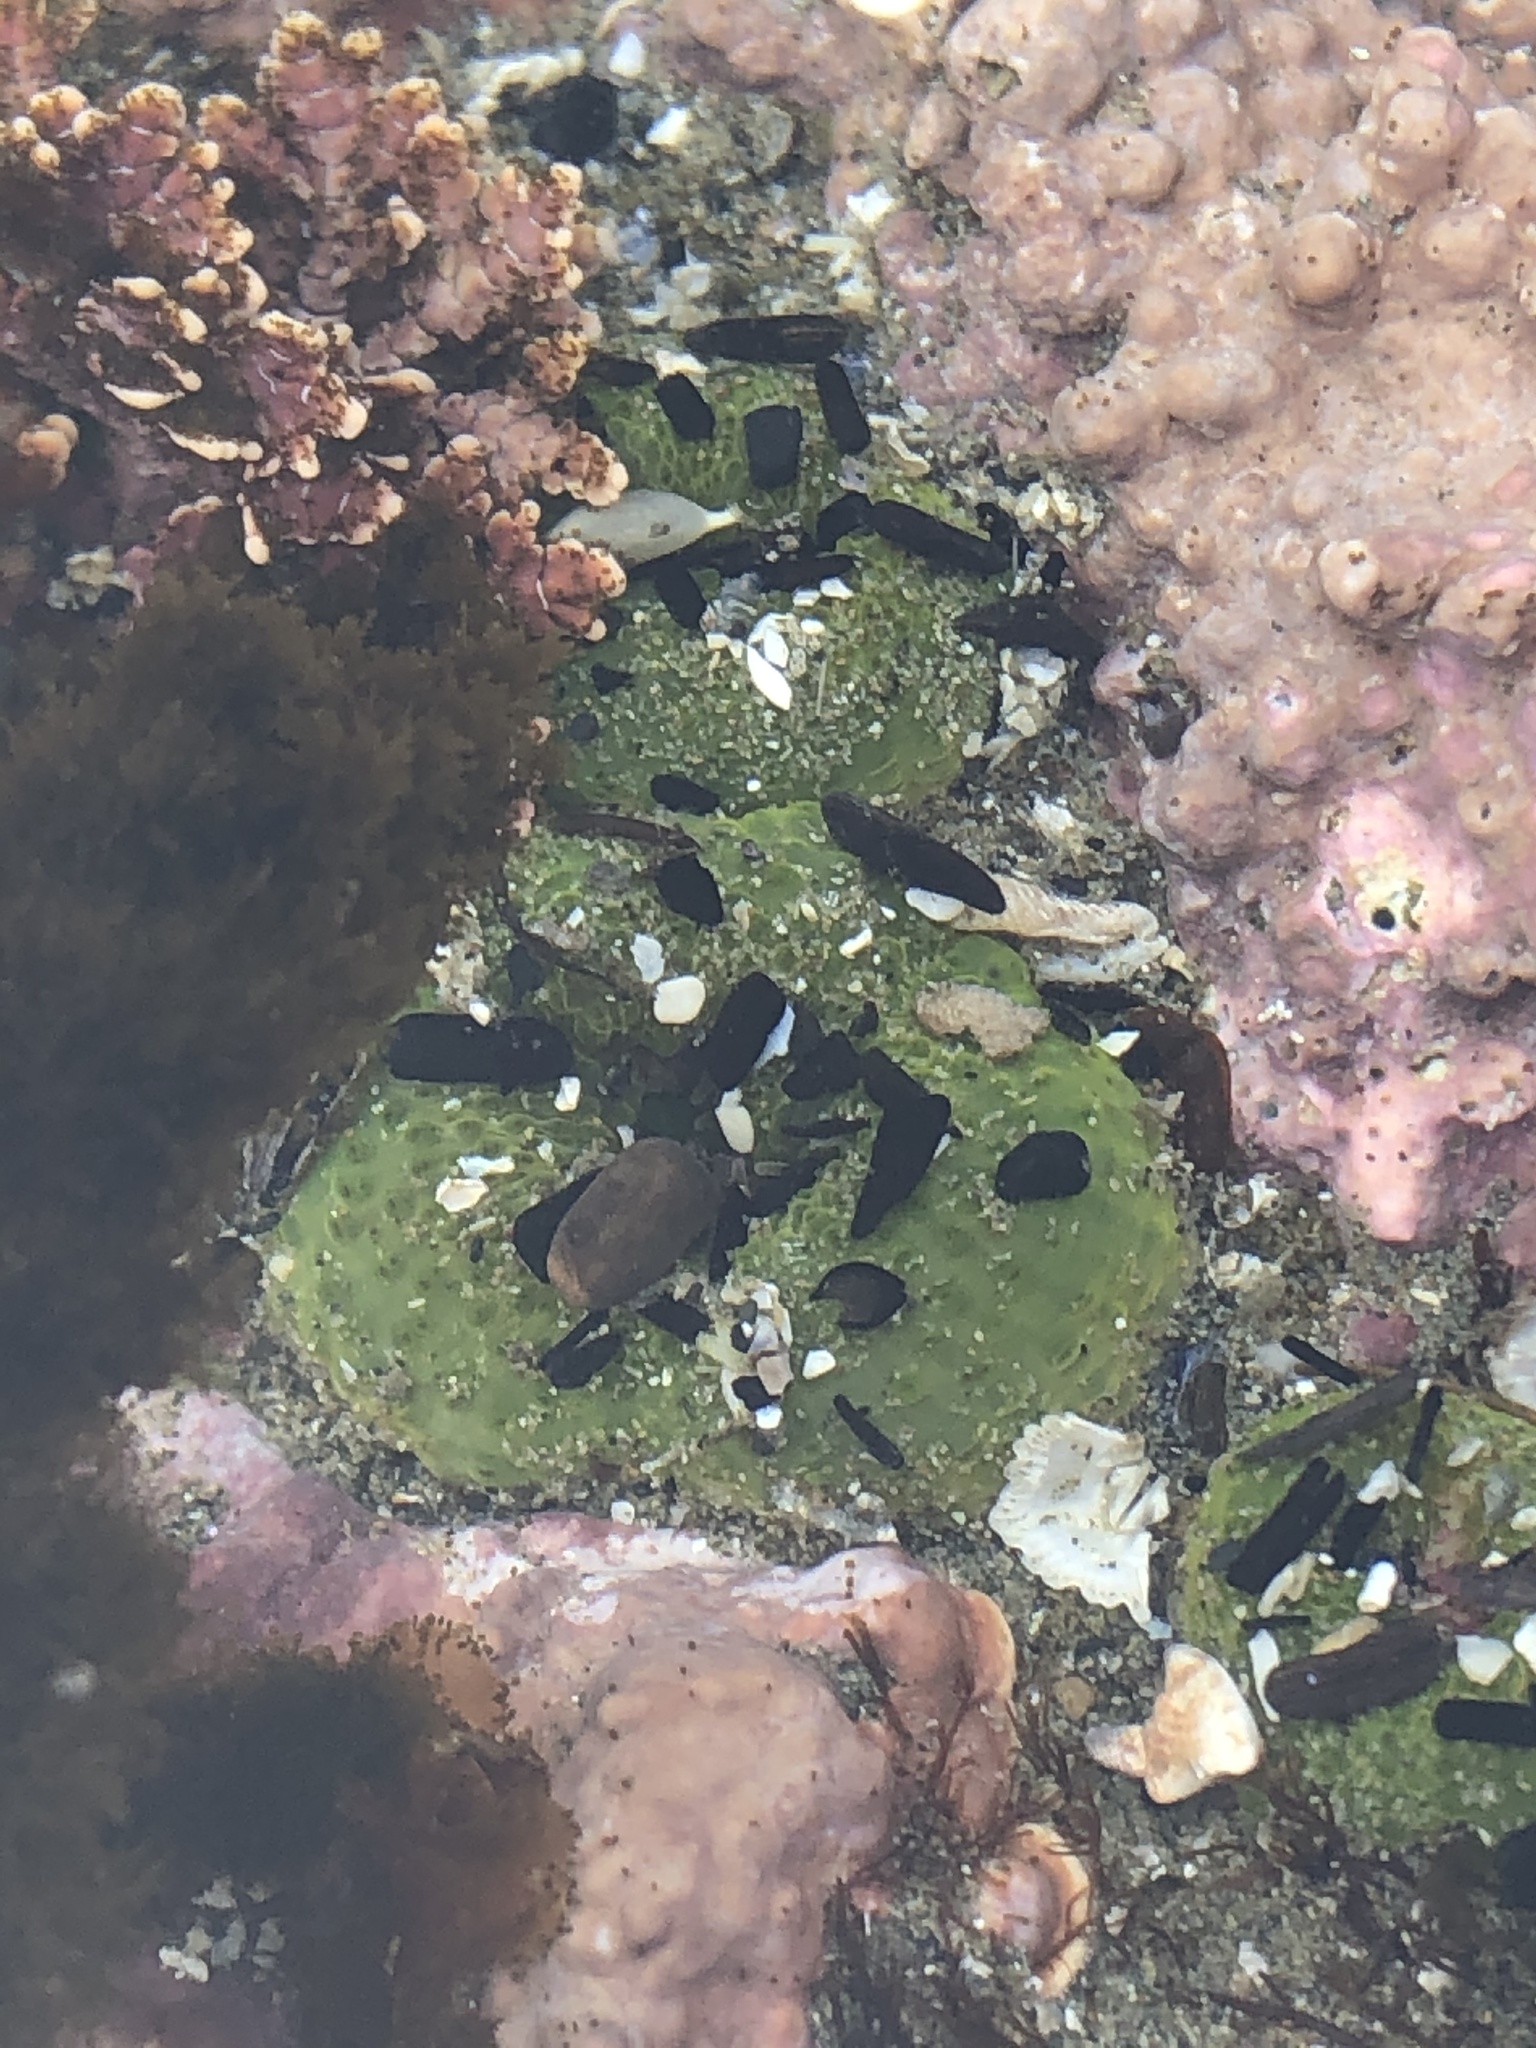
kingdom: Animalia
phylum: Cnidaria
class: Anthozoa
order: Actiniaria
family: Actiniidae
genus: Anthopleura
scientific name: Anthopleura elegantissima
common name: Clonal anemone
